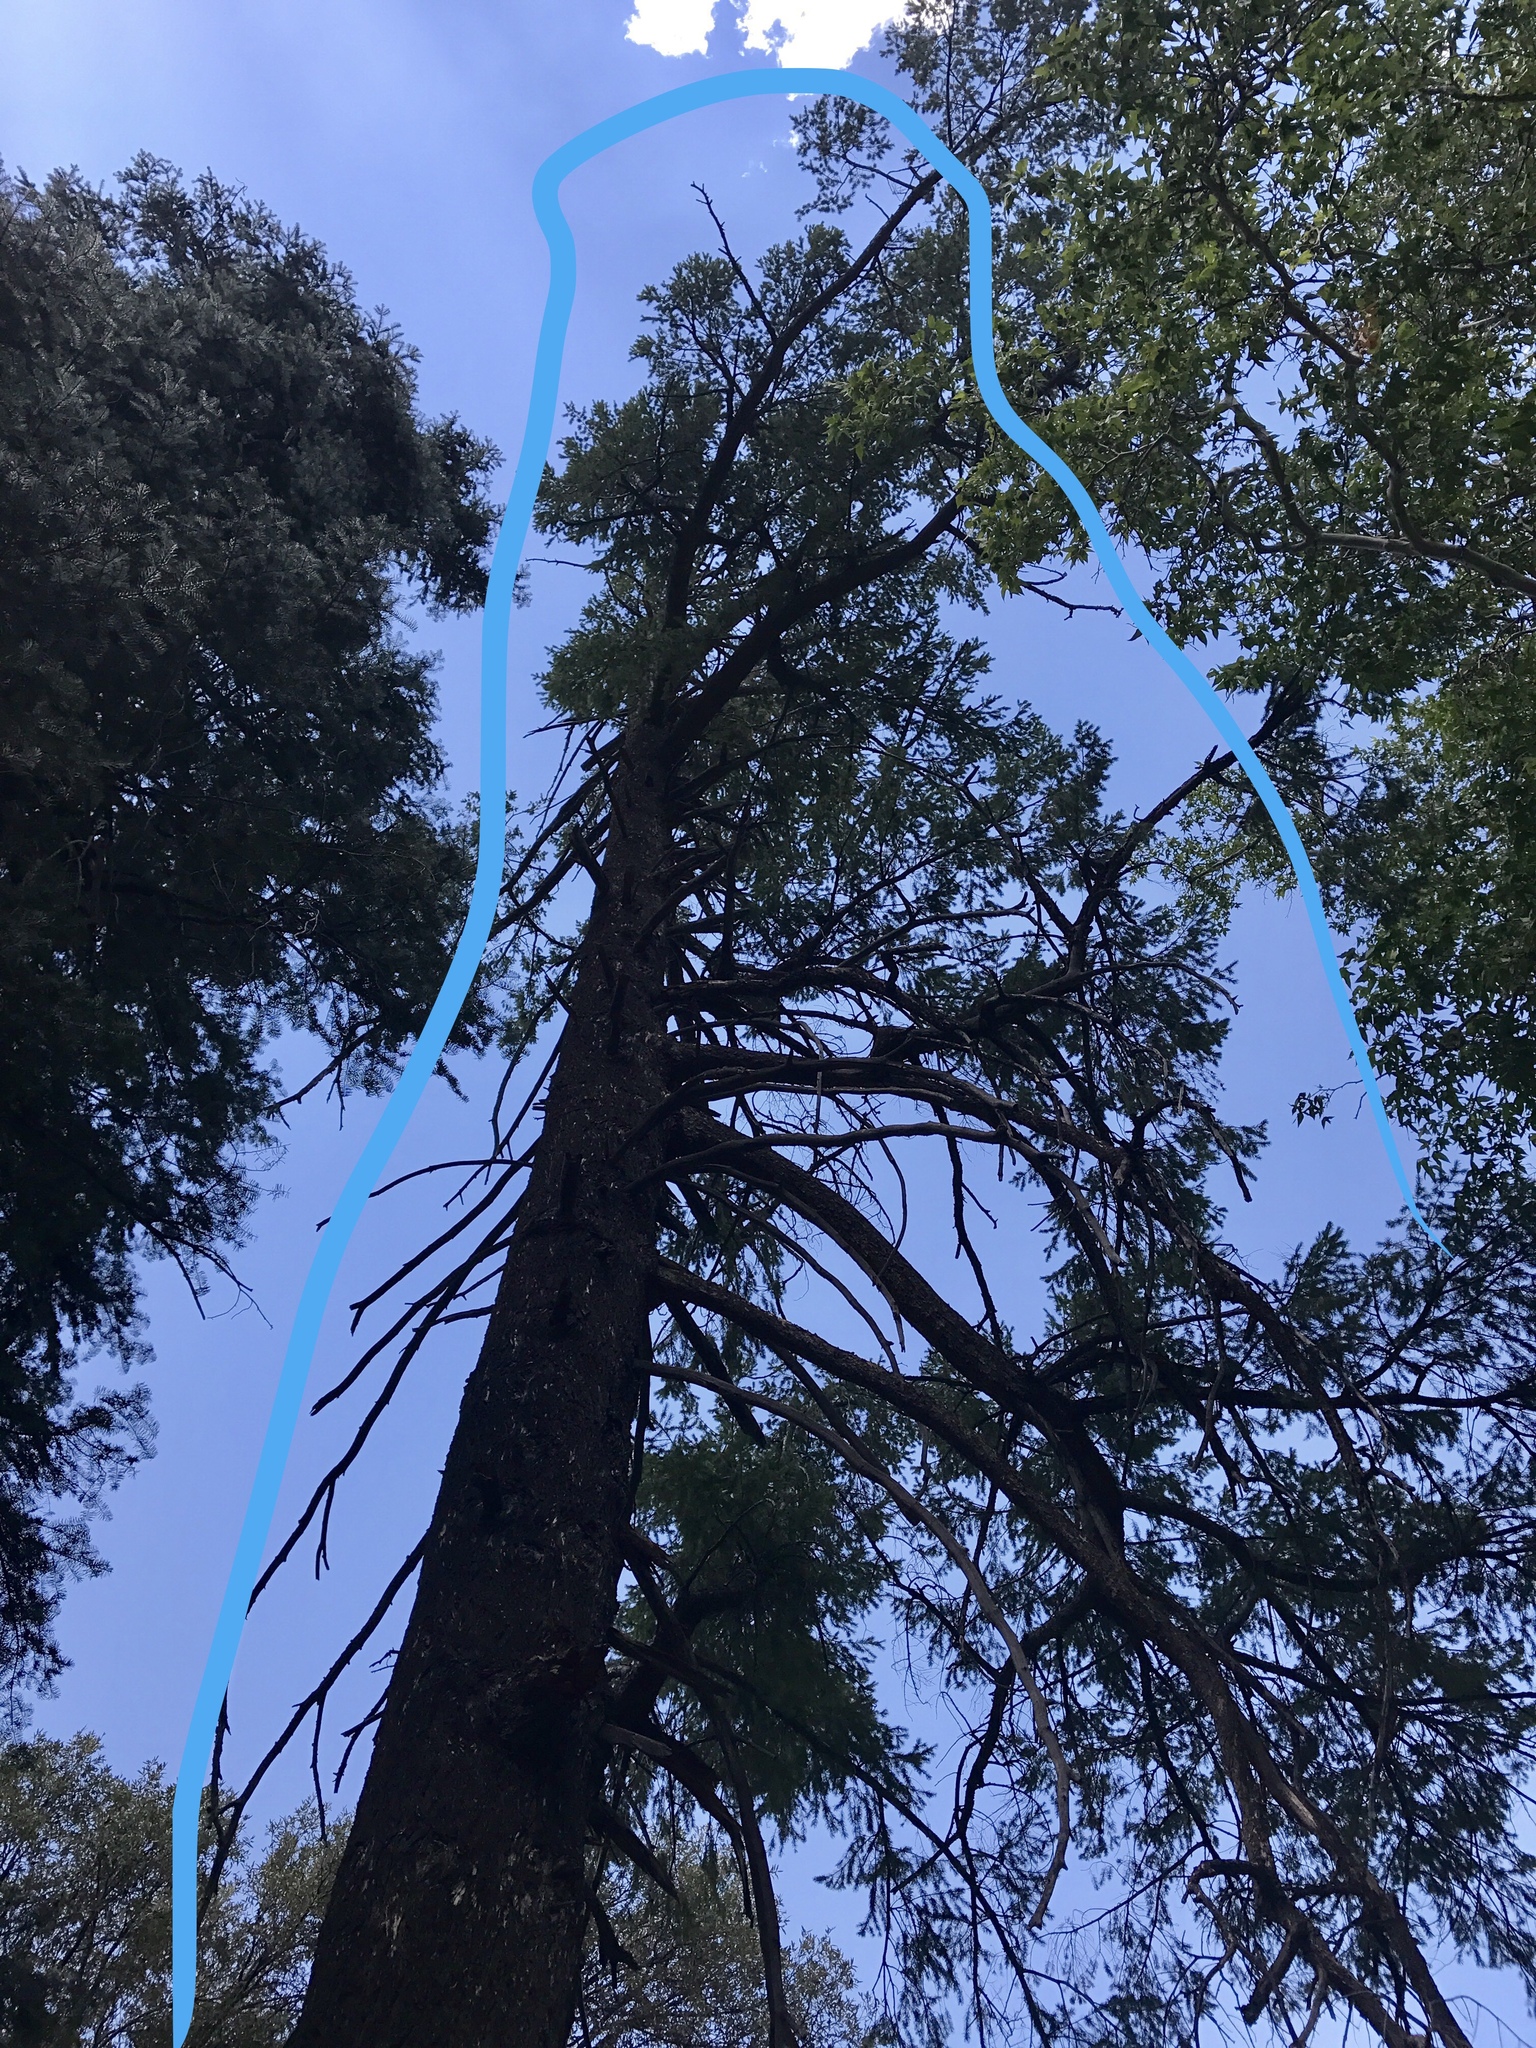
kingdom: Plantae
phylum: Tracheophyta
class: Pinopsida
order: Pinales
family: Pinaceae
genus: Pseudotsuga
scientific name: Pseudotsuga menziesii
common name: Douglas fir
